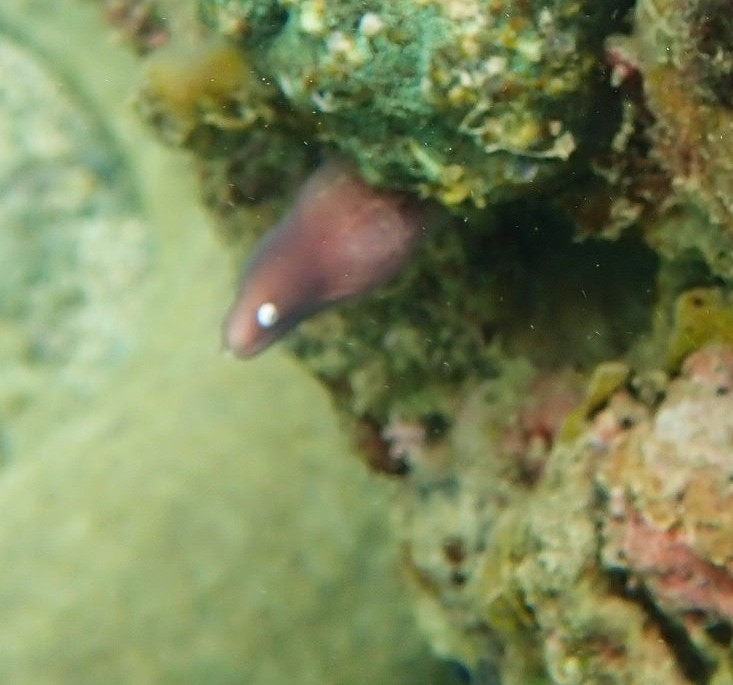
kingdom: Animalia
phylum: Chordata
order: Anguilliformes
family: Muraenidae
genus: Gymnothorax
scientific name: Gymnothorax thyrsoideus
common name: Greyface moray
